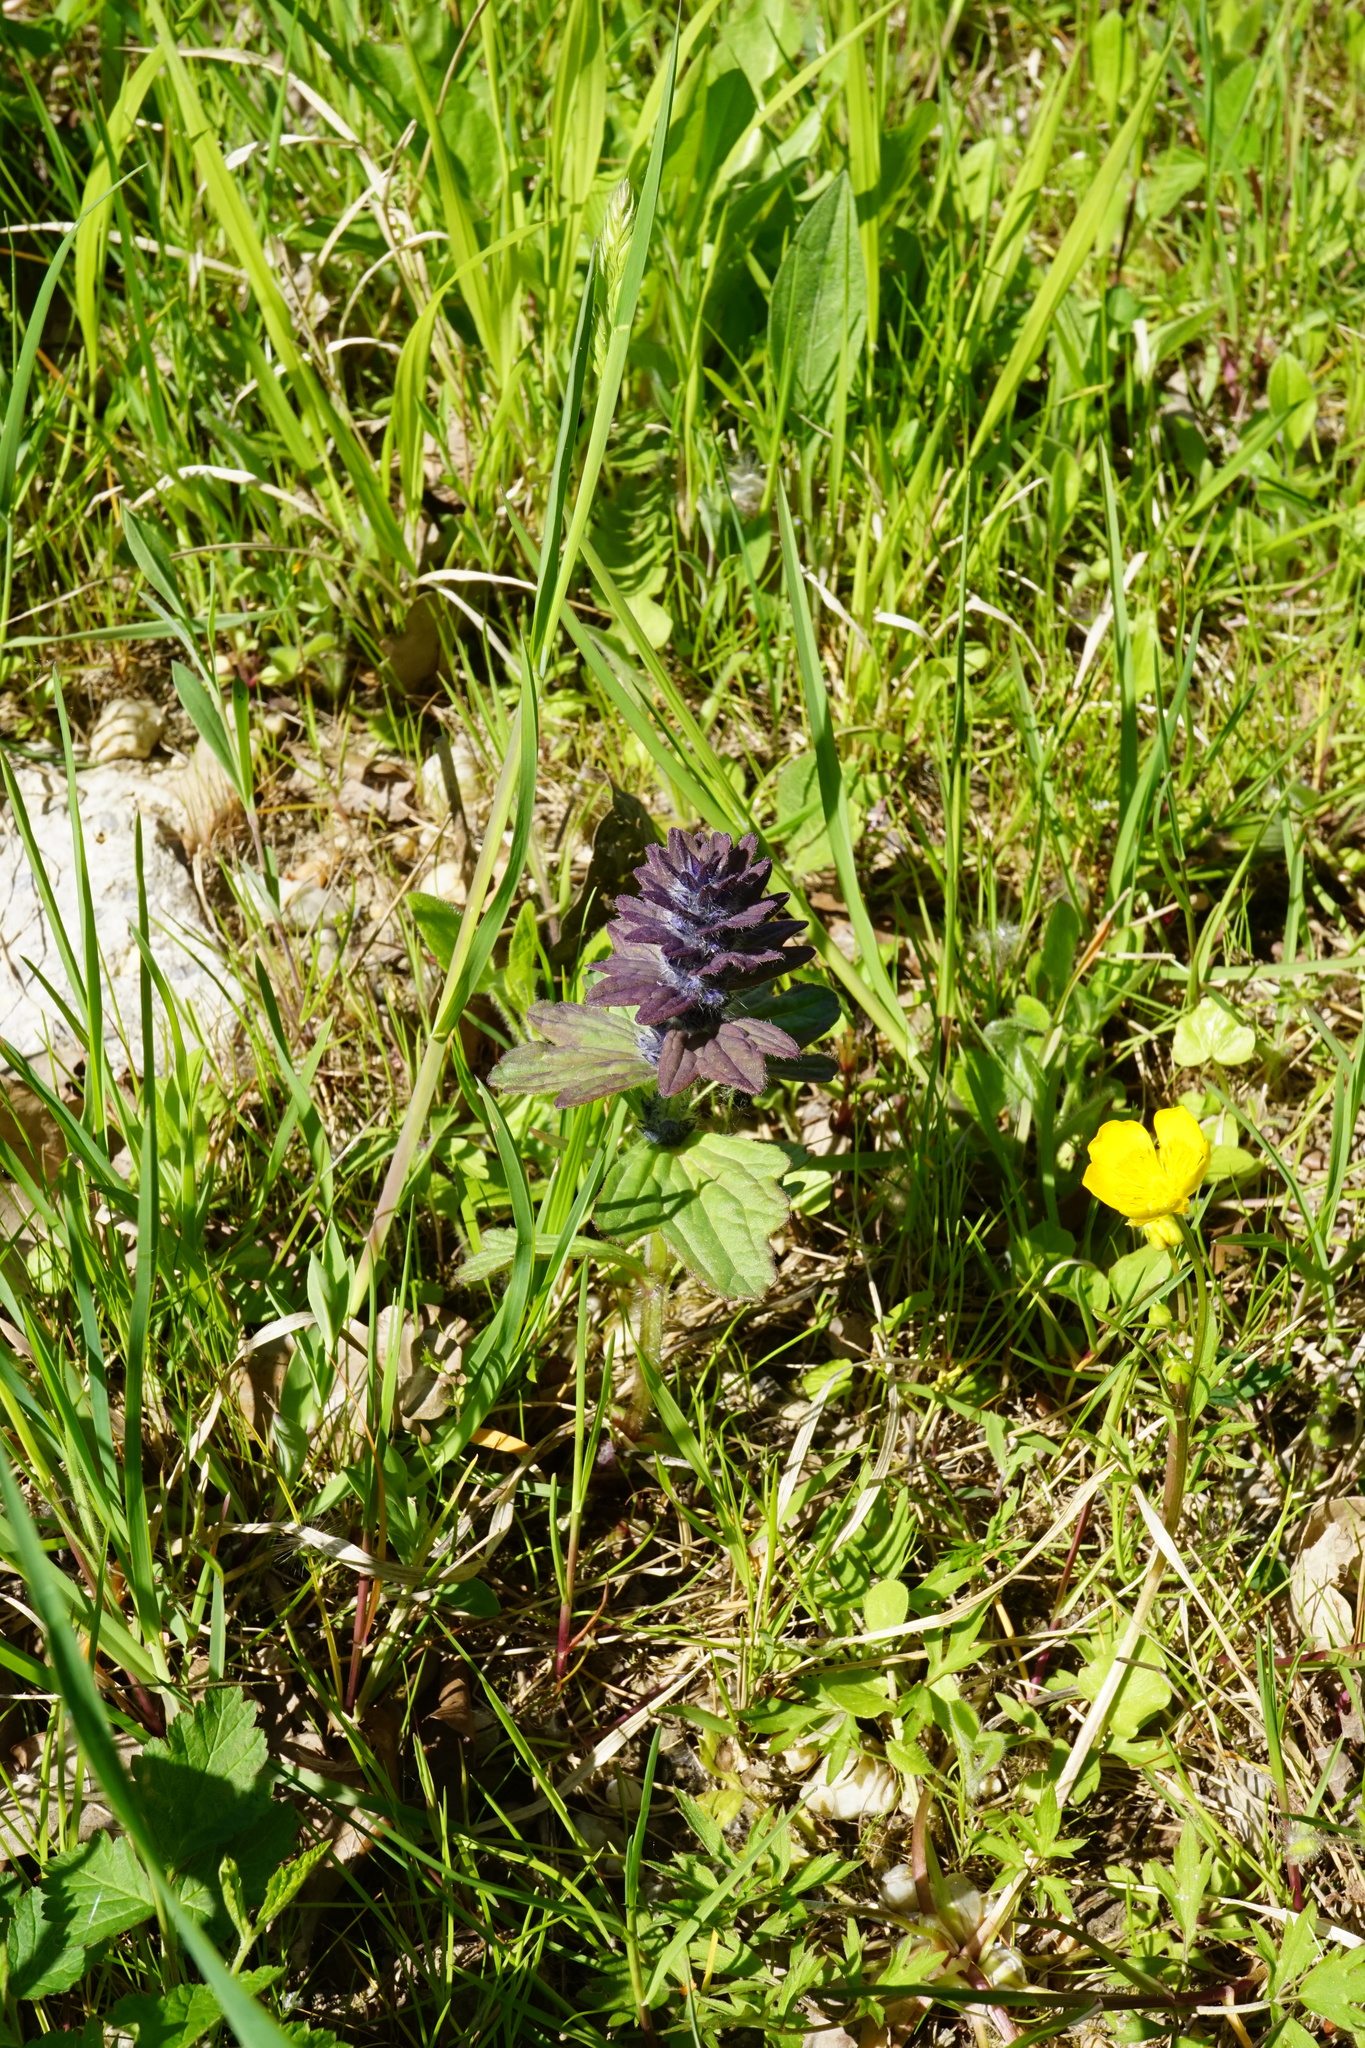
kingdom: Plantae
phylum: Tracheophyta
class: Magnoliopsida
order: Lamiales
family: Lamiaceae
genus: Ajuga
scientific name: Ajuga genevensis
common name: Blue bugle
